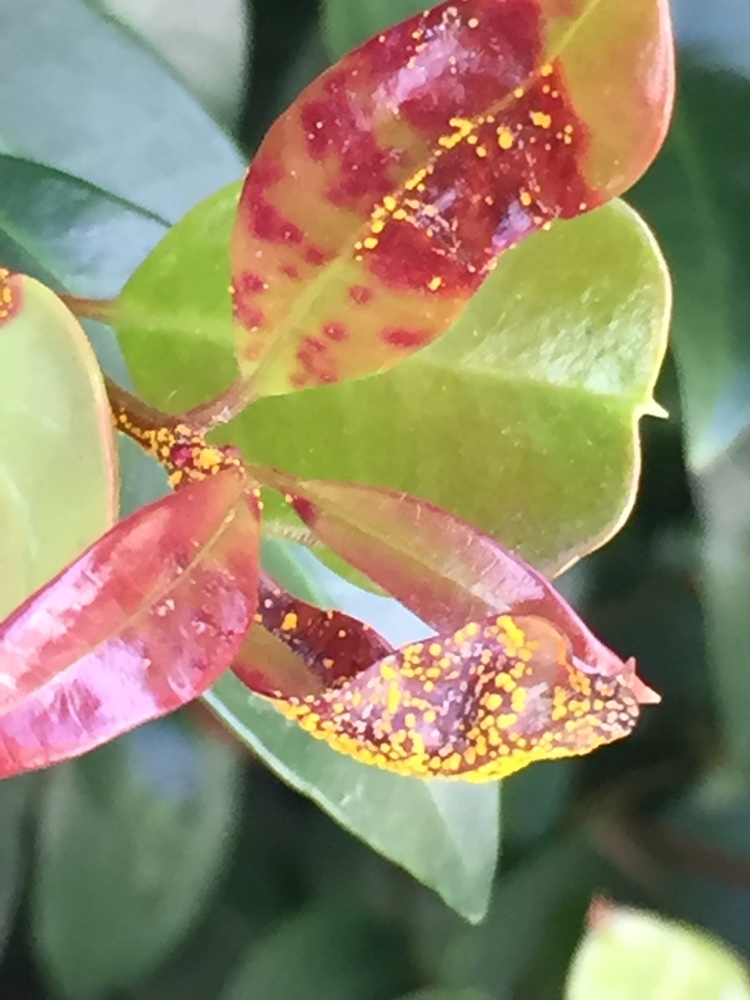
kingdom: Fungi
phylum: Basidiomycota
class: Pucciniomycetes
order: Pucciniales
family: Sphaerophragmiaceae
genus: Austropuccinia
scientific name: Austropuccinia psidii
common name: Myrtle rust
